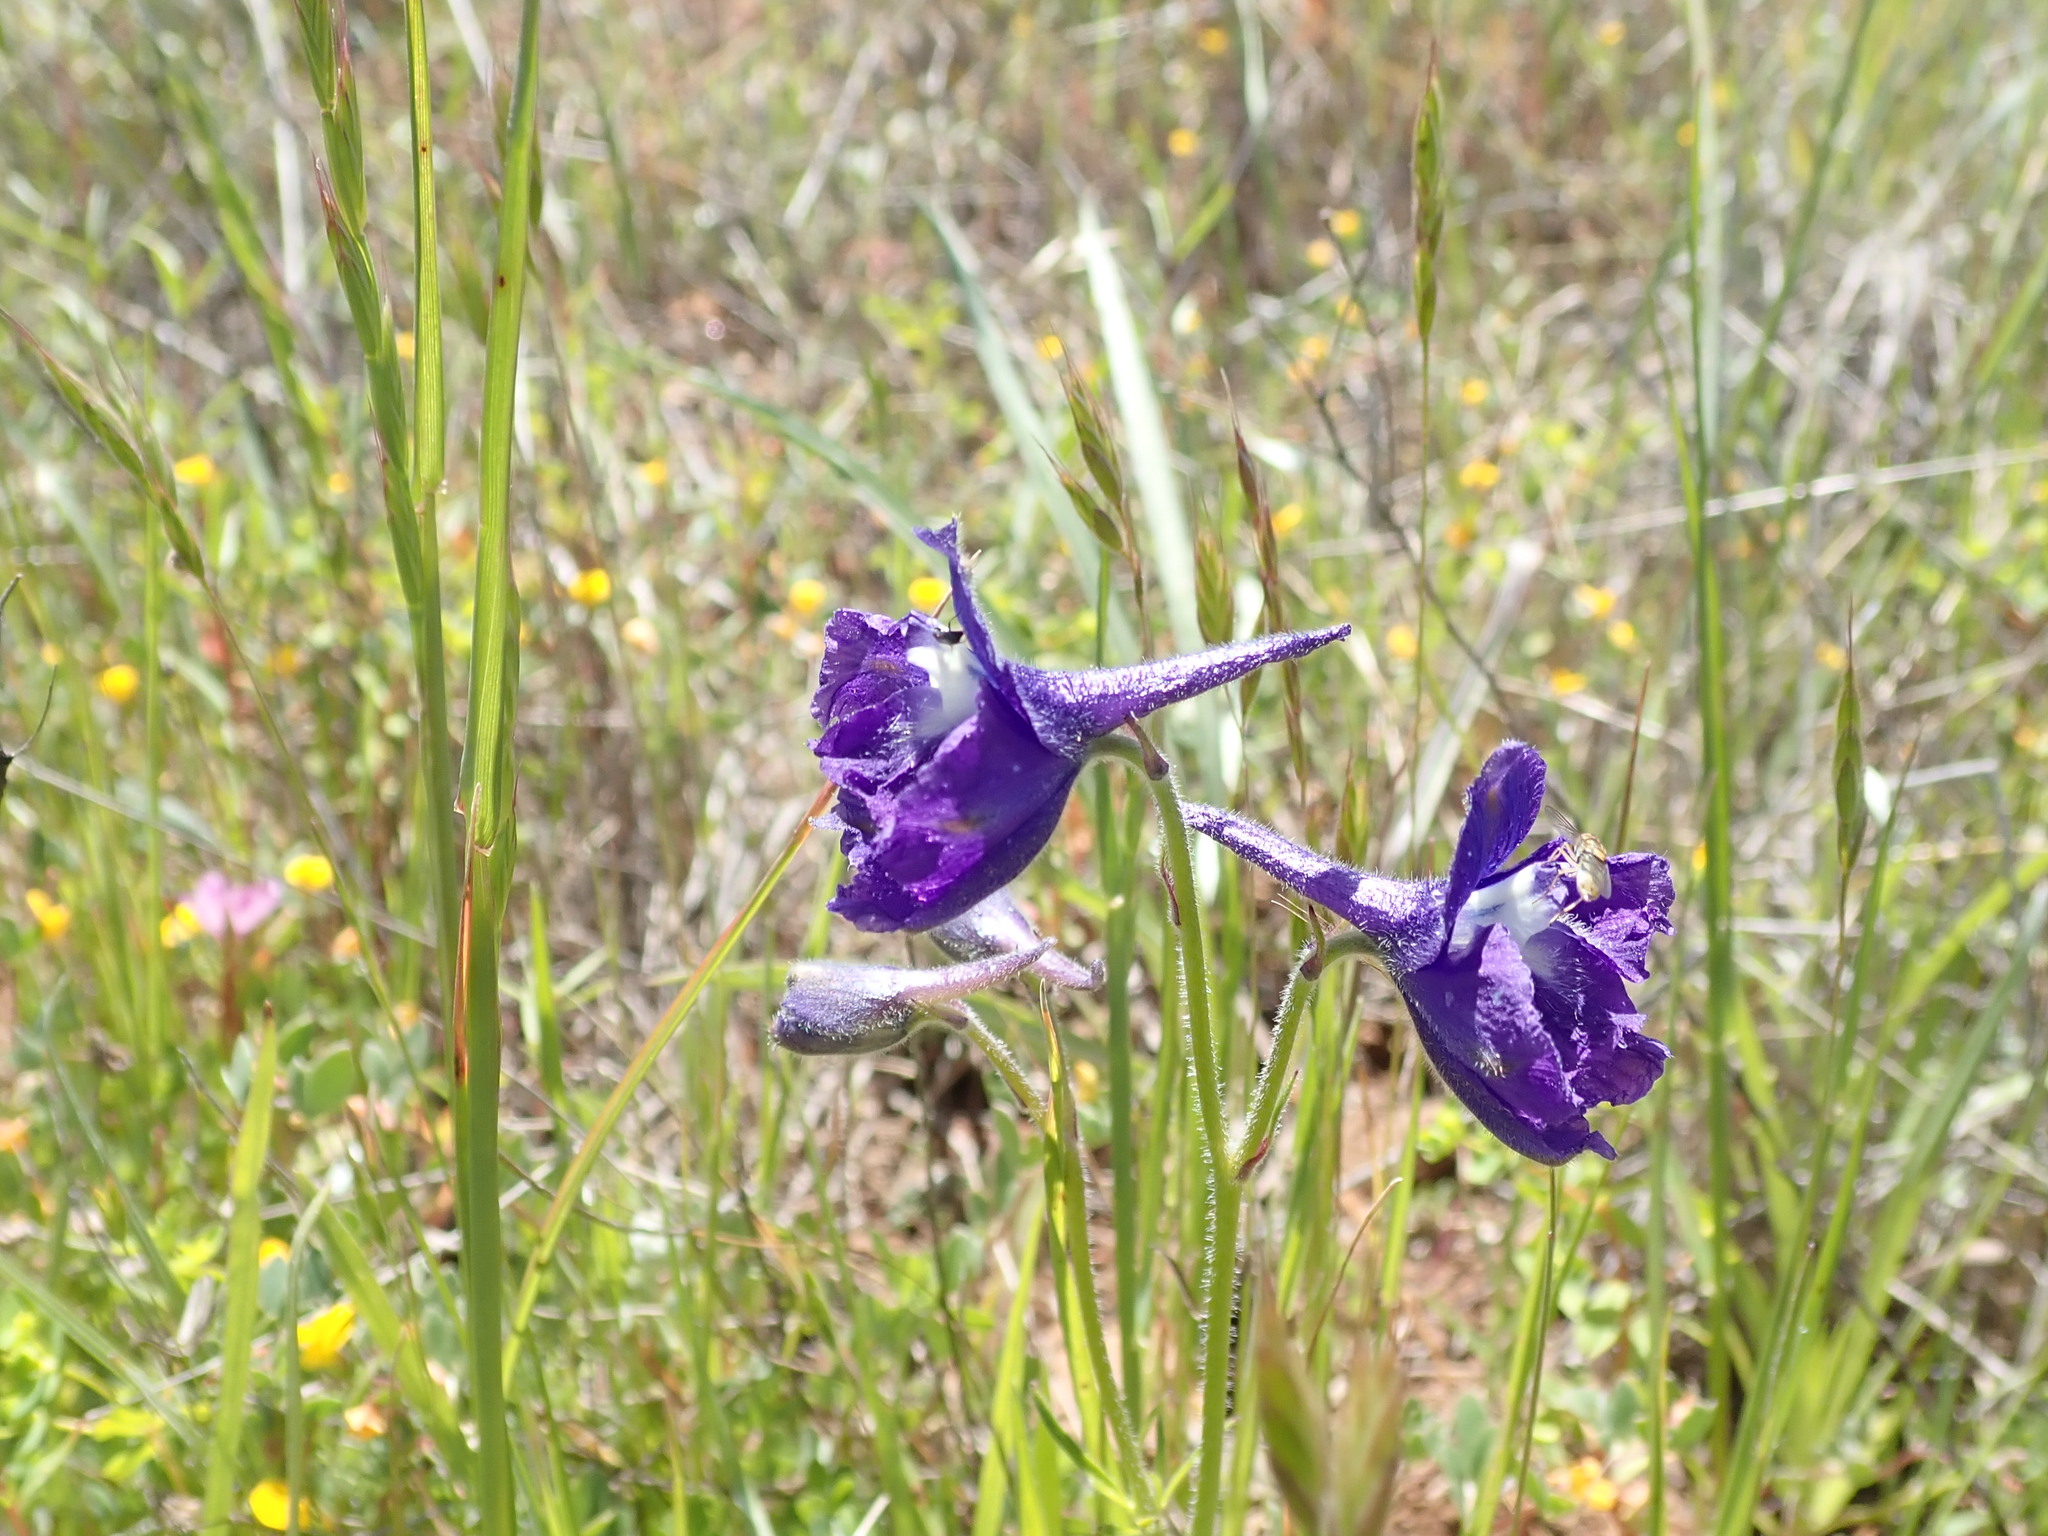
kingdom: Plantae
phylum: Tracheophyta
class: Magnoliopsida
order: Ranunculales
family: Ranunculaceae
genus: Delphinium
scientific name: Delphinium variegatum
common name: Royal larkspur
